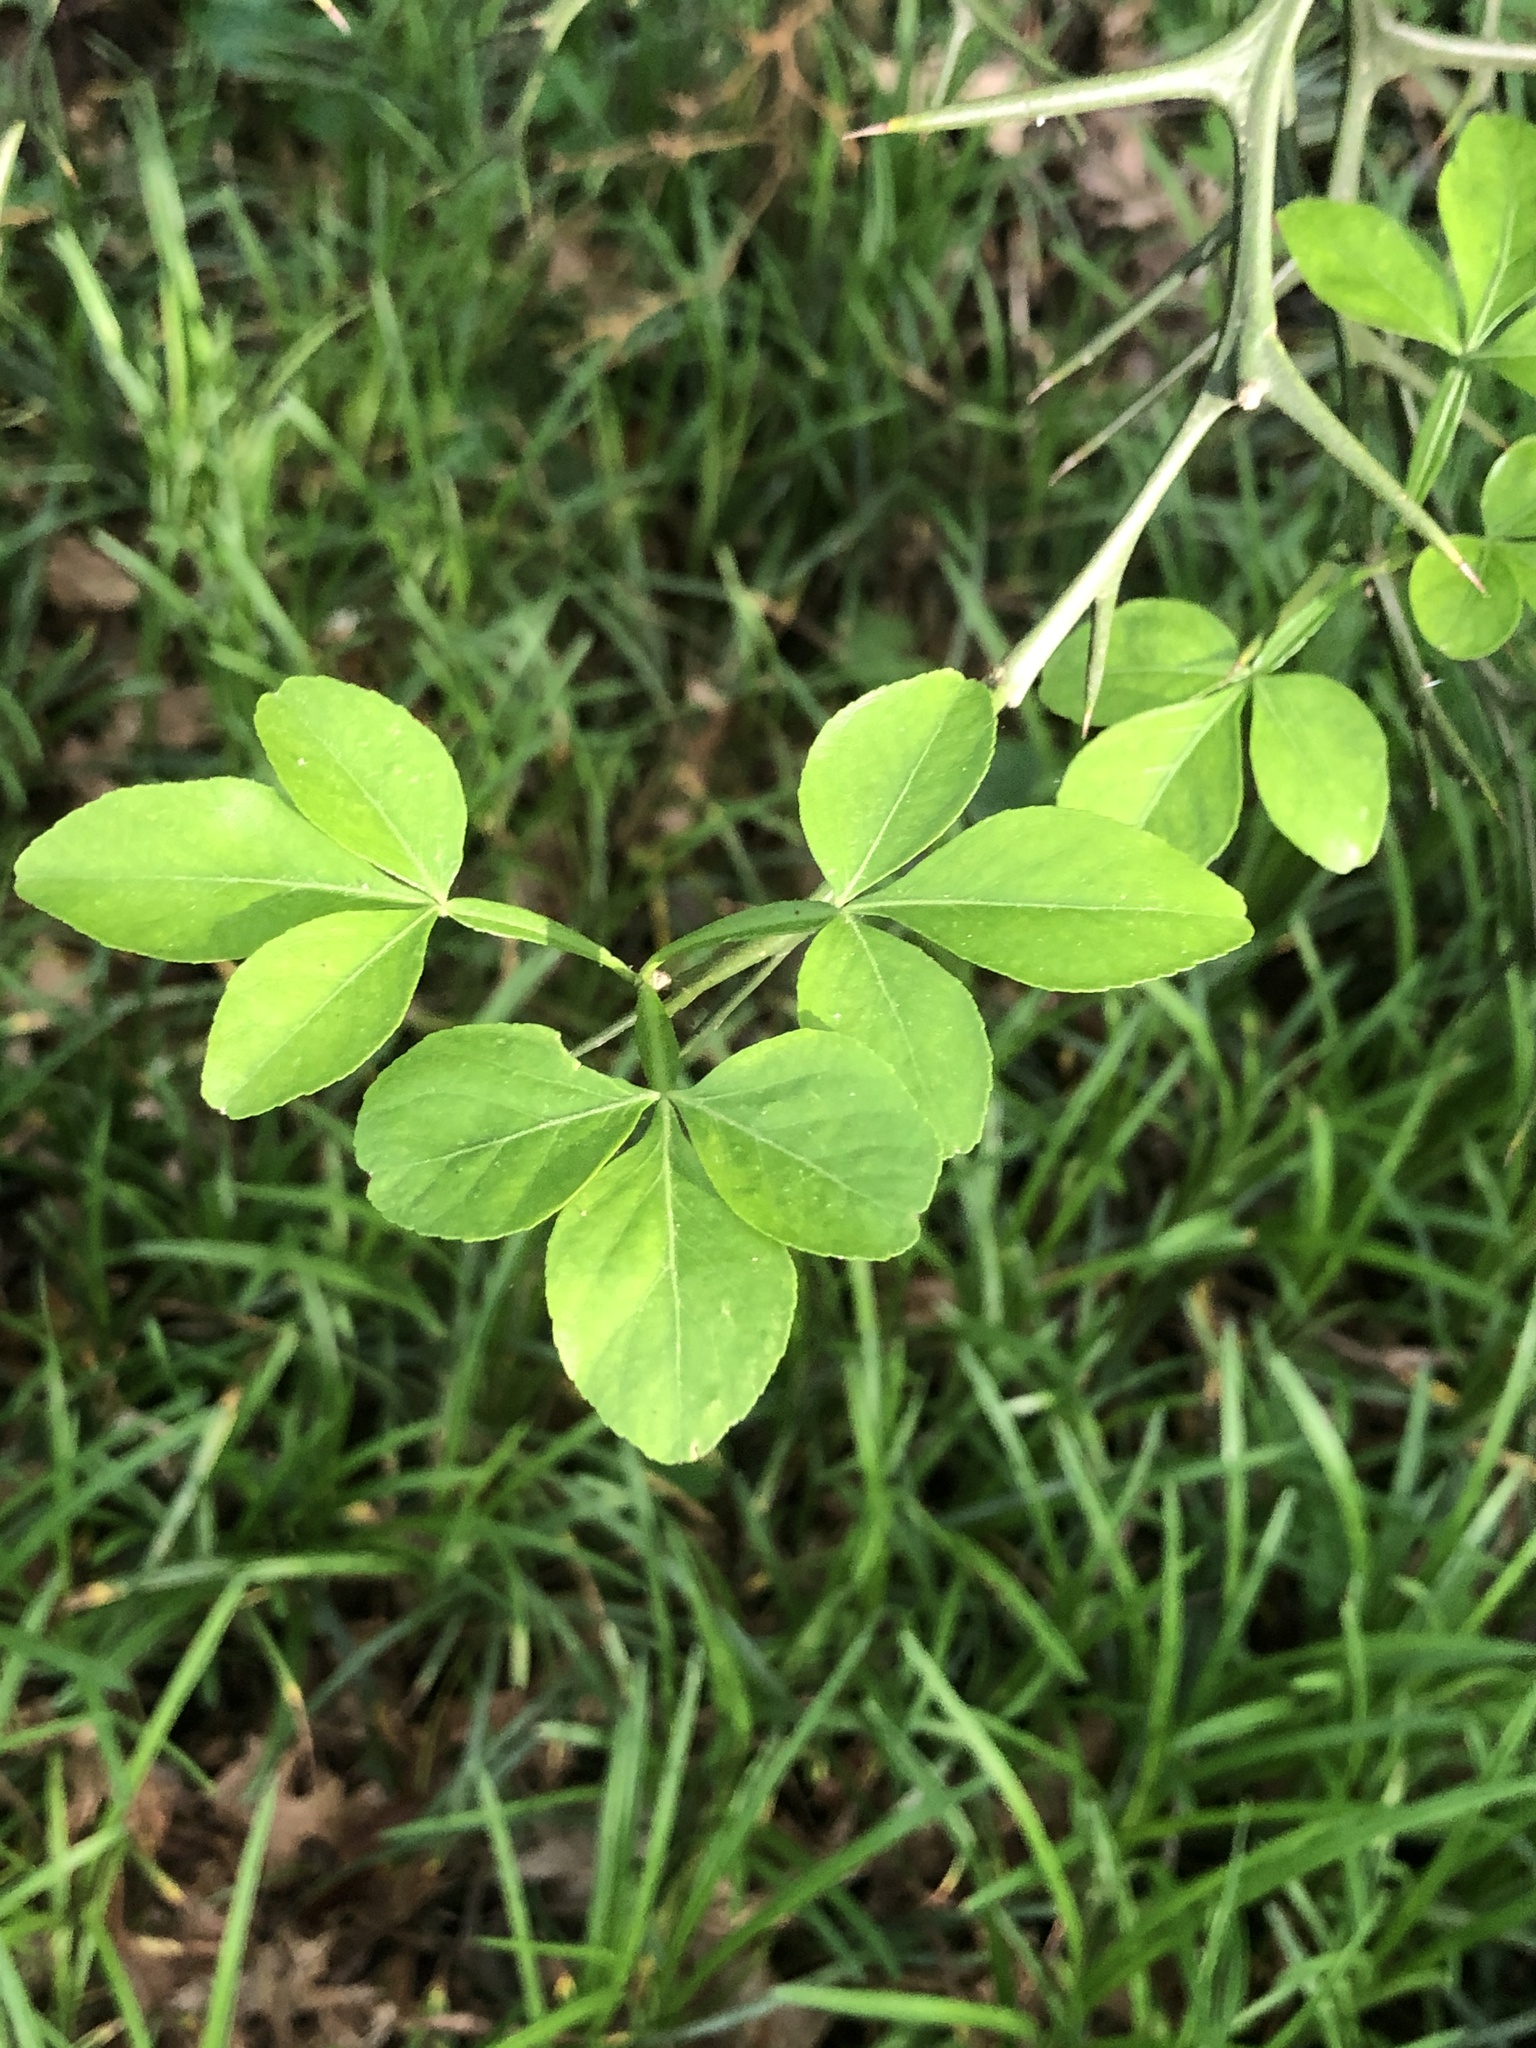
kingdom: Plantae
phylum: Tracheophyta
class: Magnoliopsida
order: Sapindales
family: Rutaceae
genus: Citrus
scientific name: Citrus trifoliata
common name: Japanese bitter-orange
